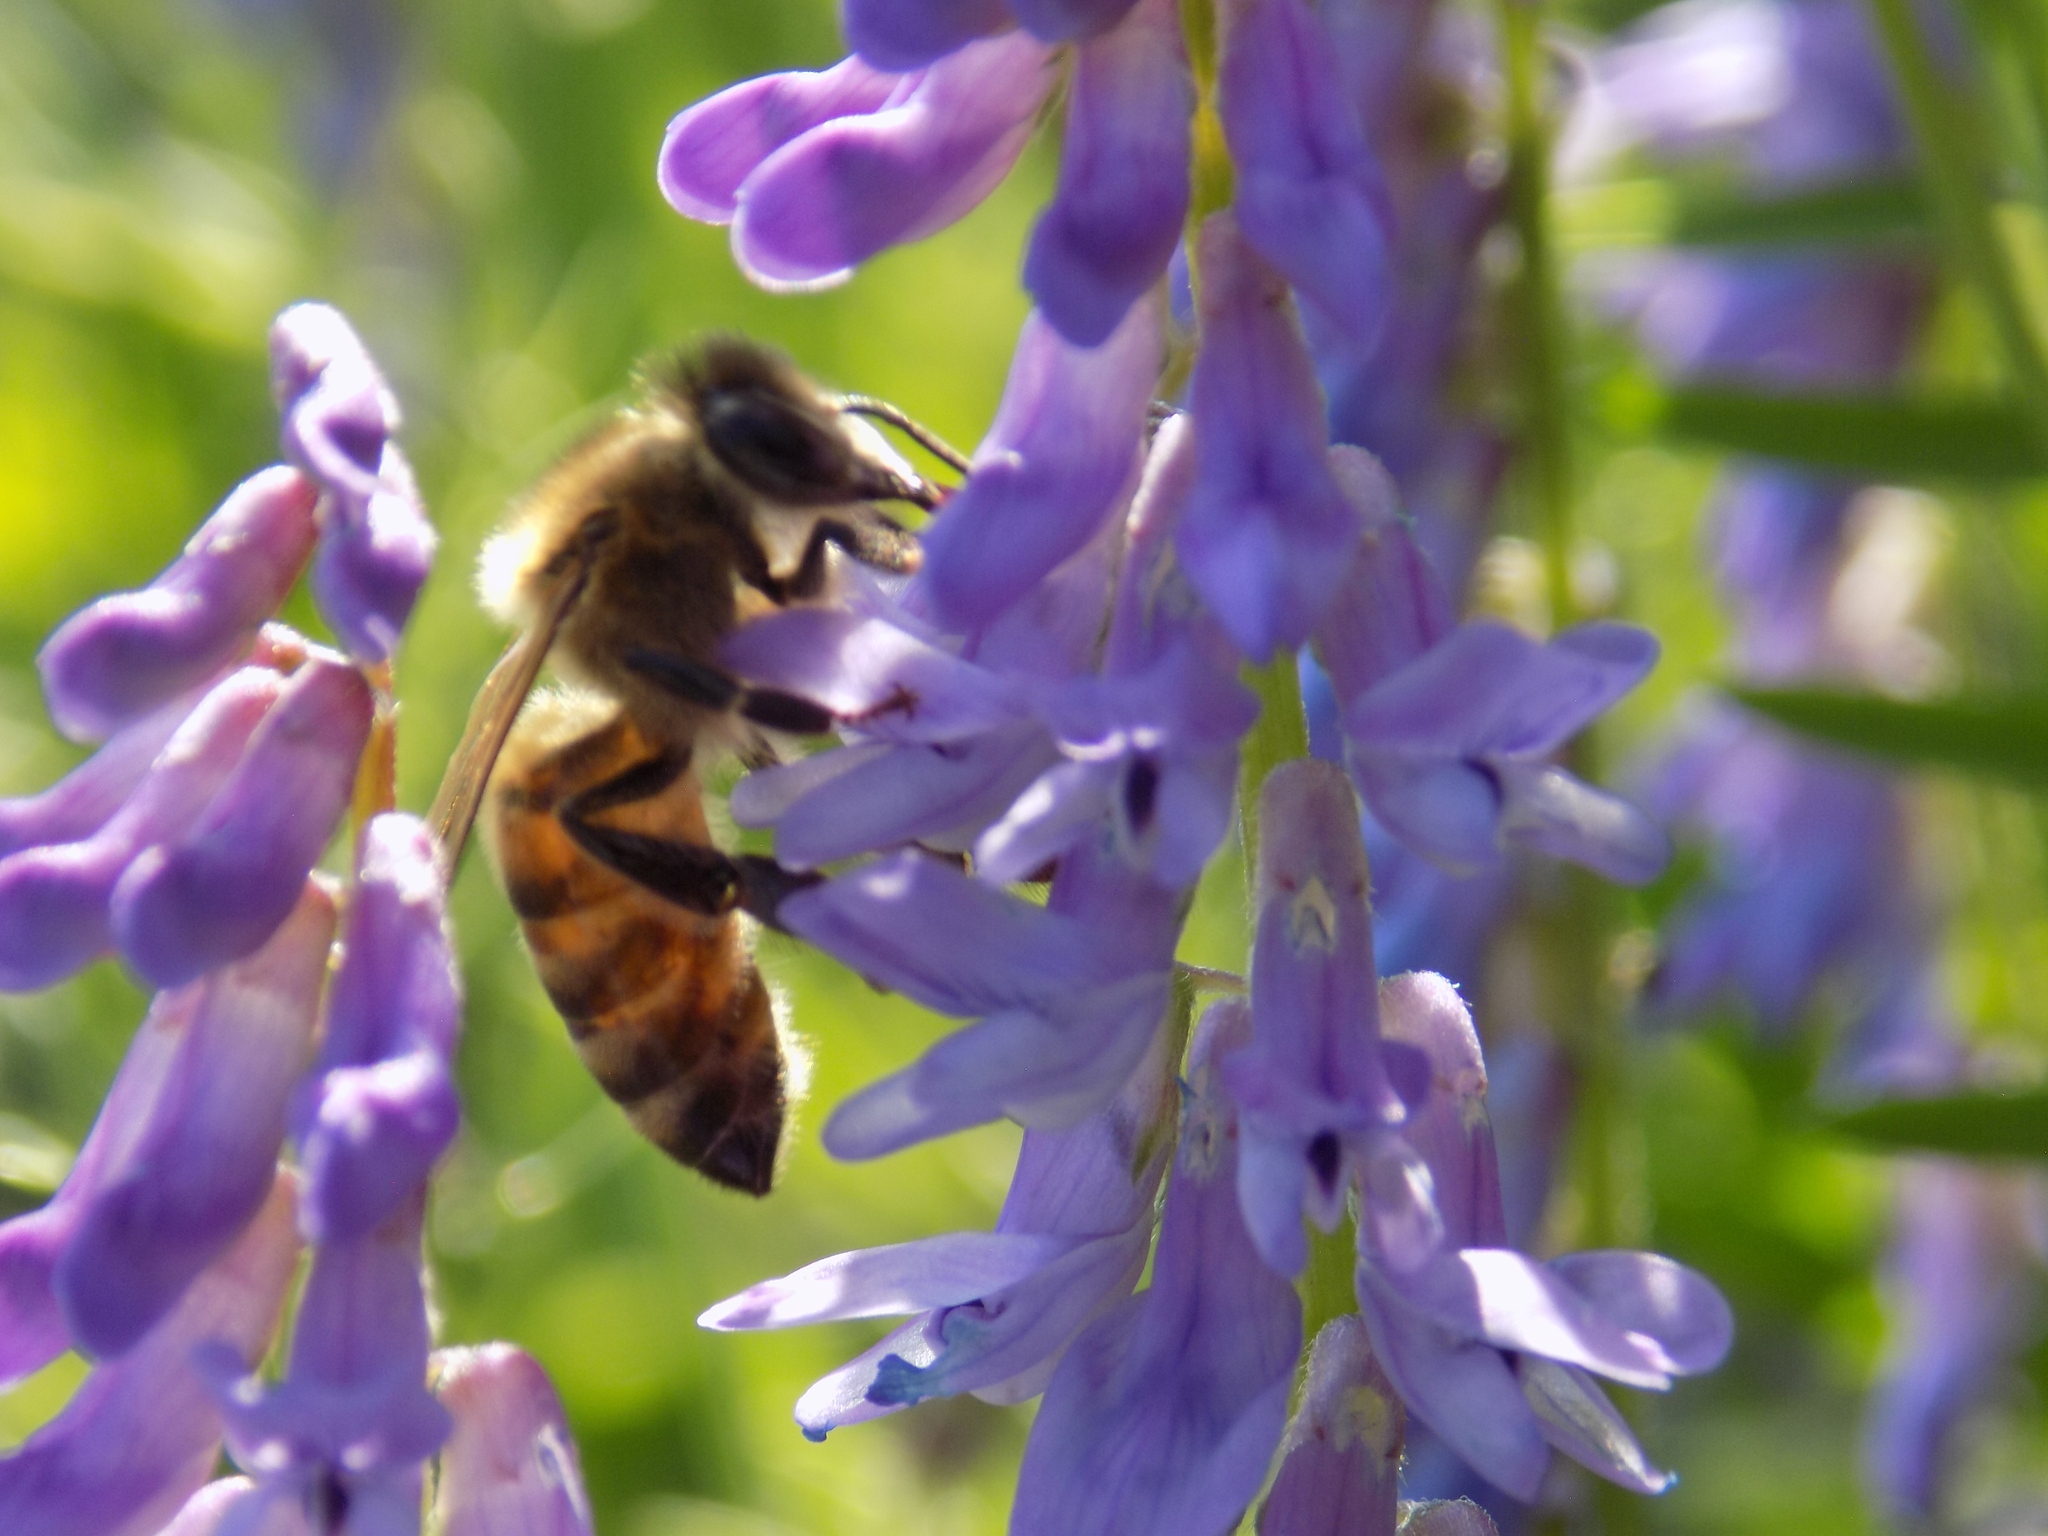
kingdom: Animalia
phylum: Arthropoda
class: Insecta
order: Hymenoptera
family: Apidae
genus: Apis
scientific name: Apis mellifera
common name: Honey bee
